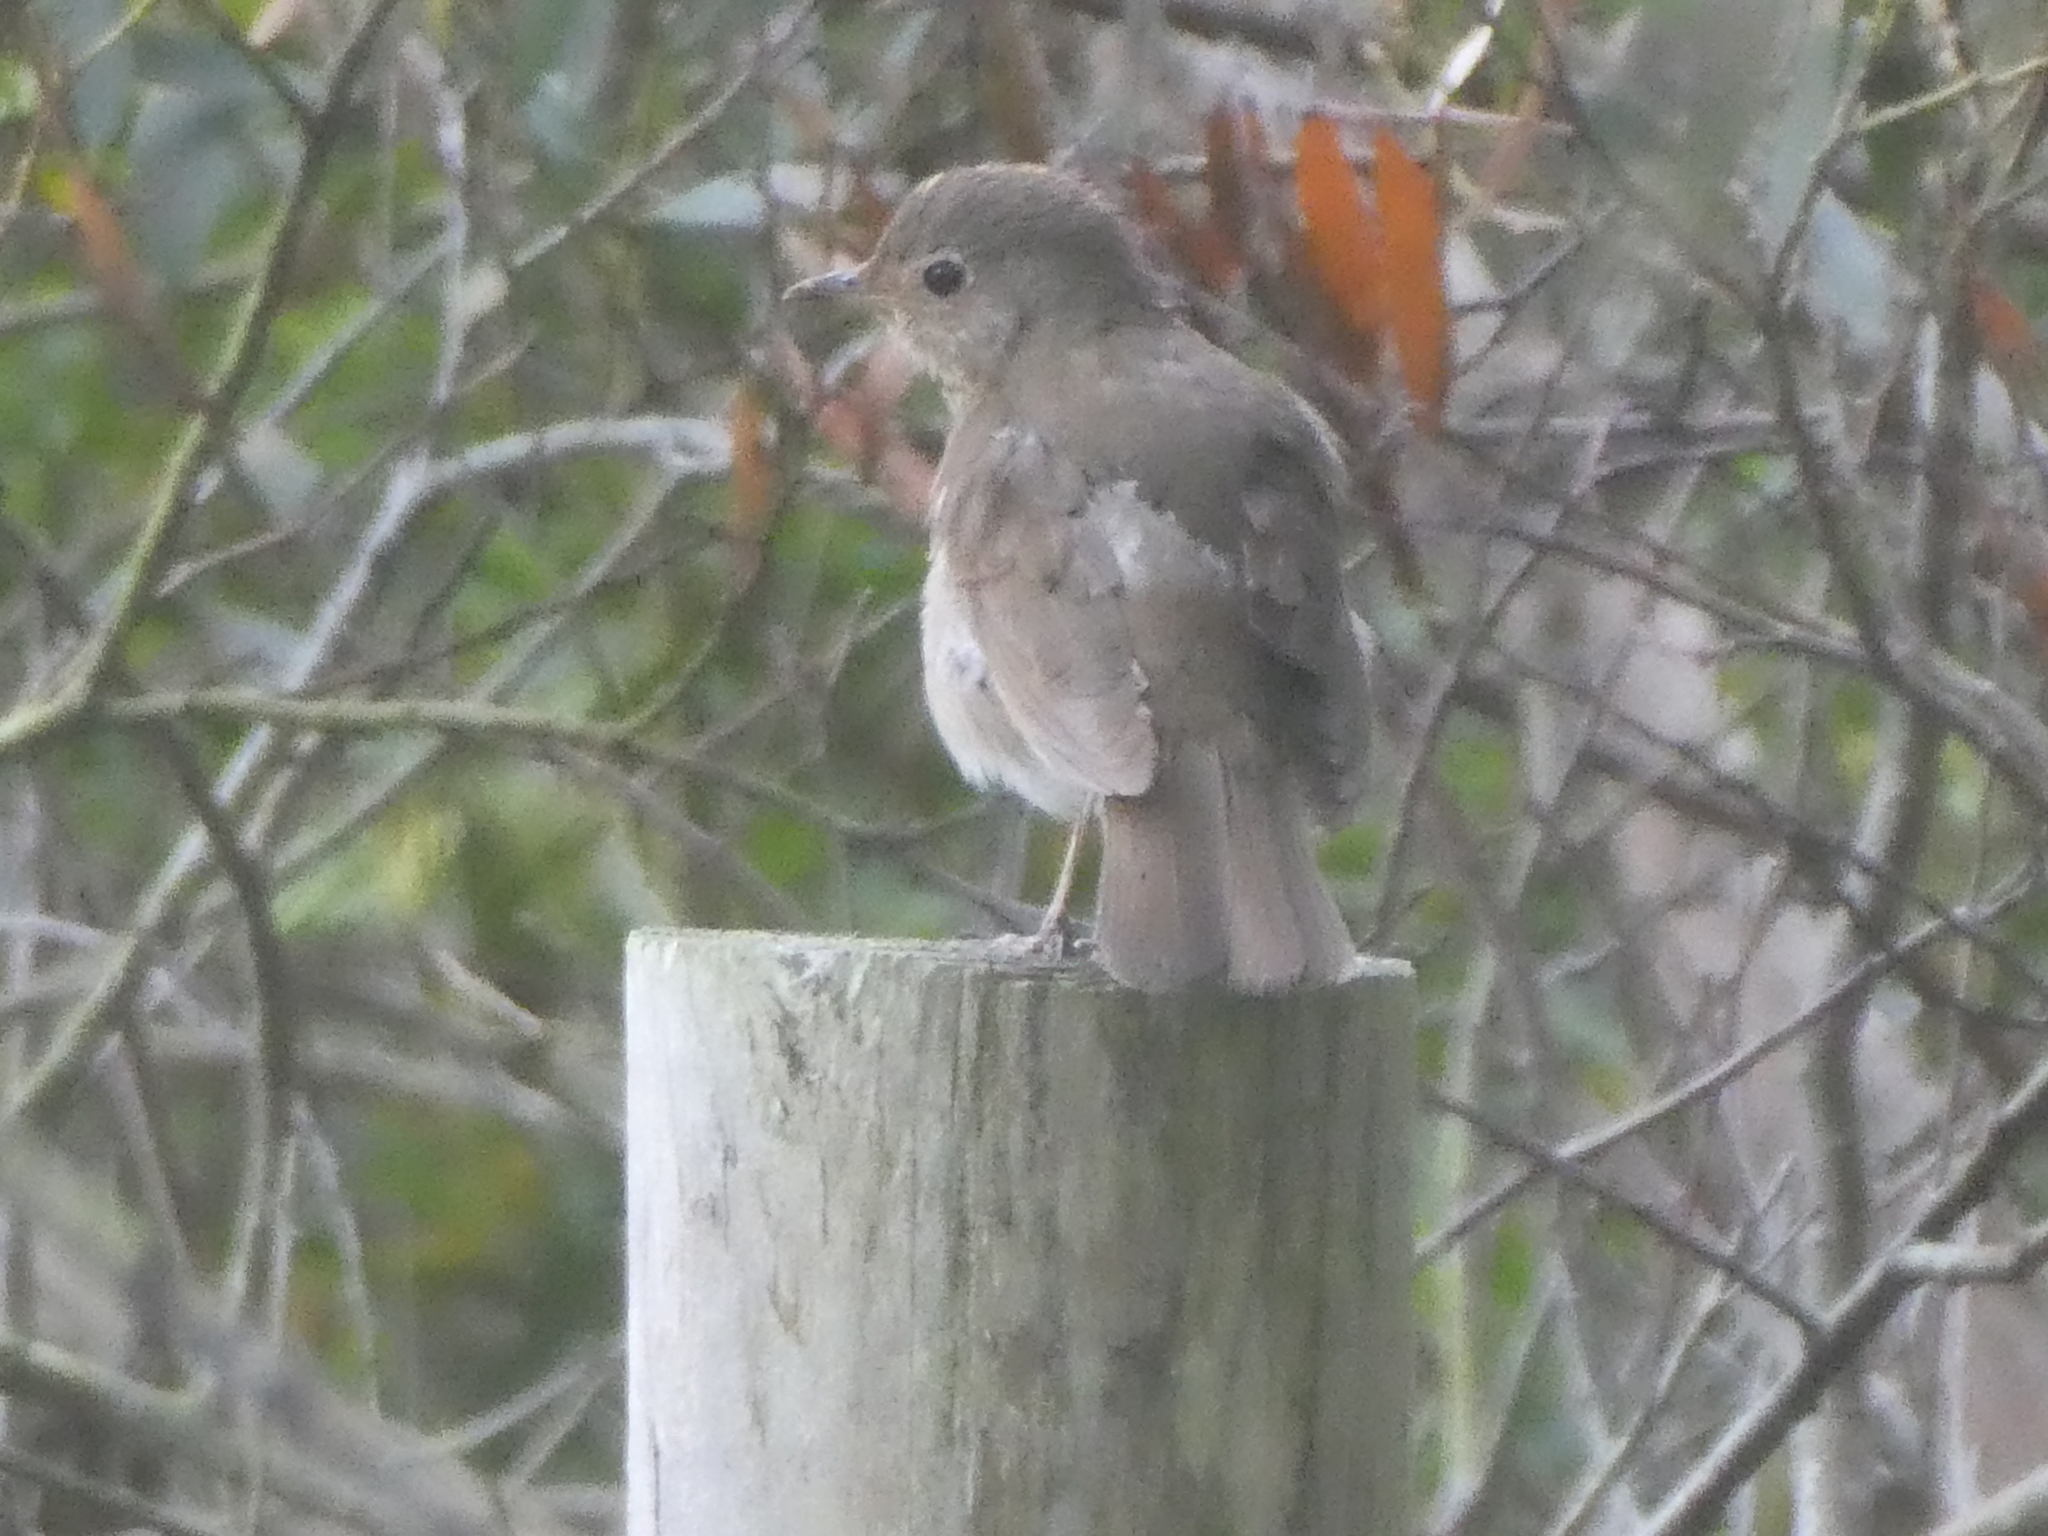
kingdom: Animalia
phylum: Chordata
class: Aves
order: Passeriformes
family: Turdidae
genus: Catharus
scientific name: Catharus ustulatus
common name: Swainson's thrush
